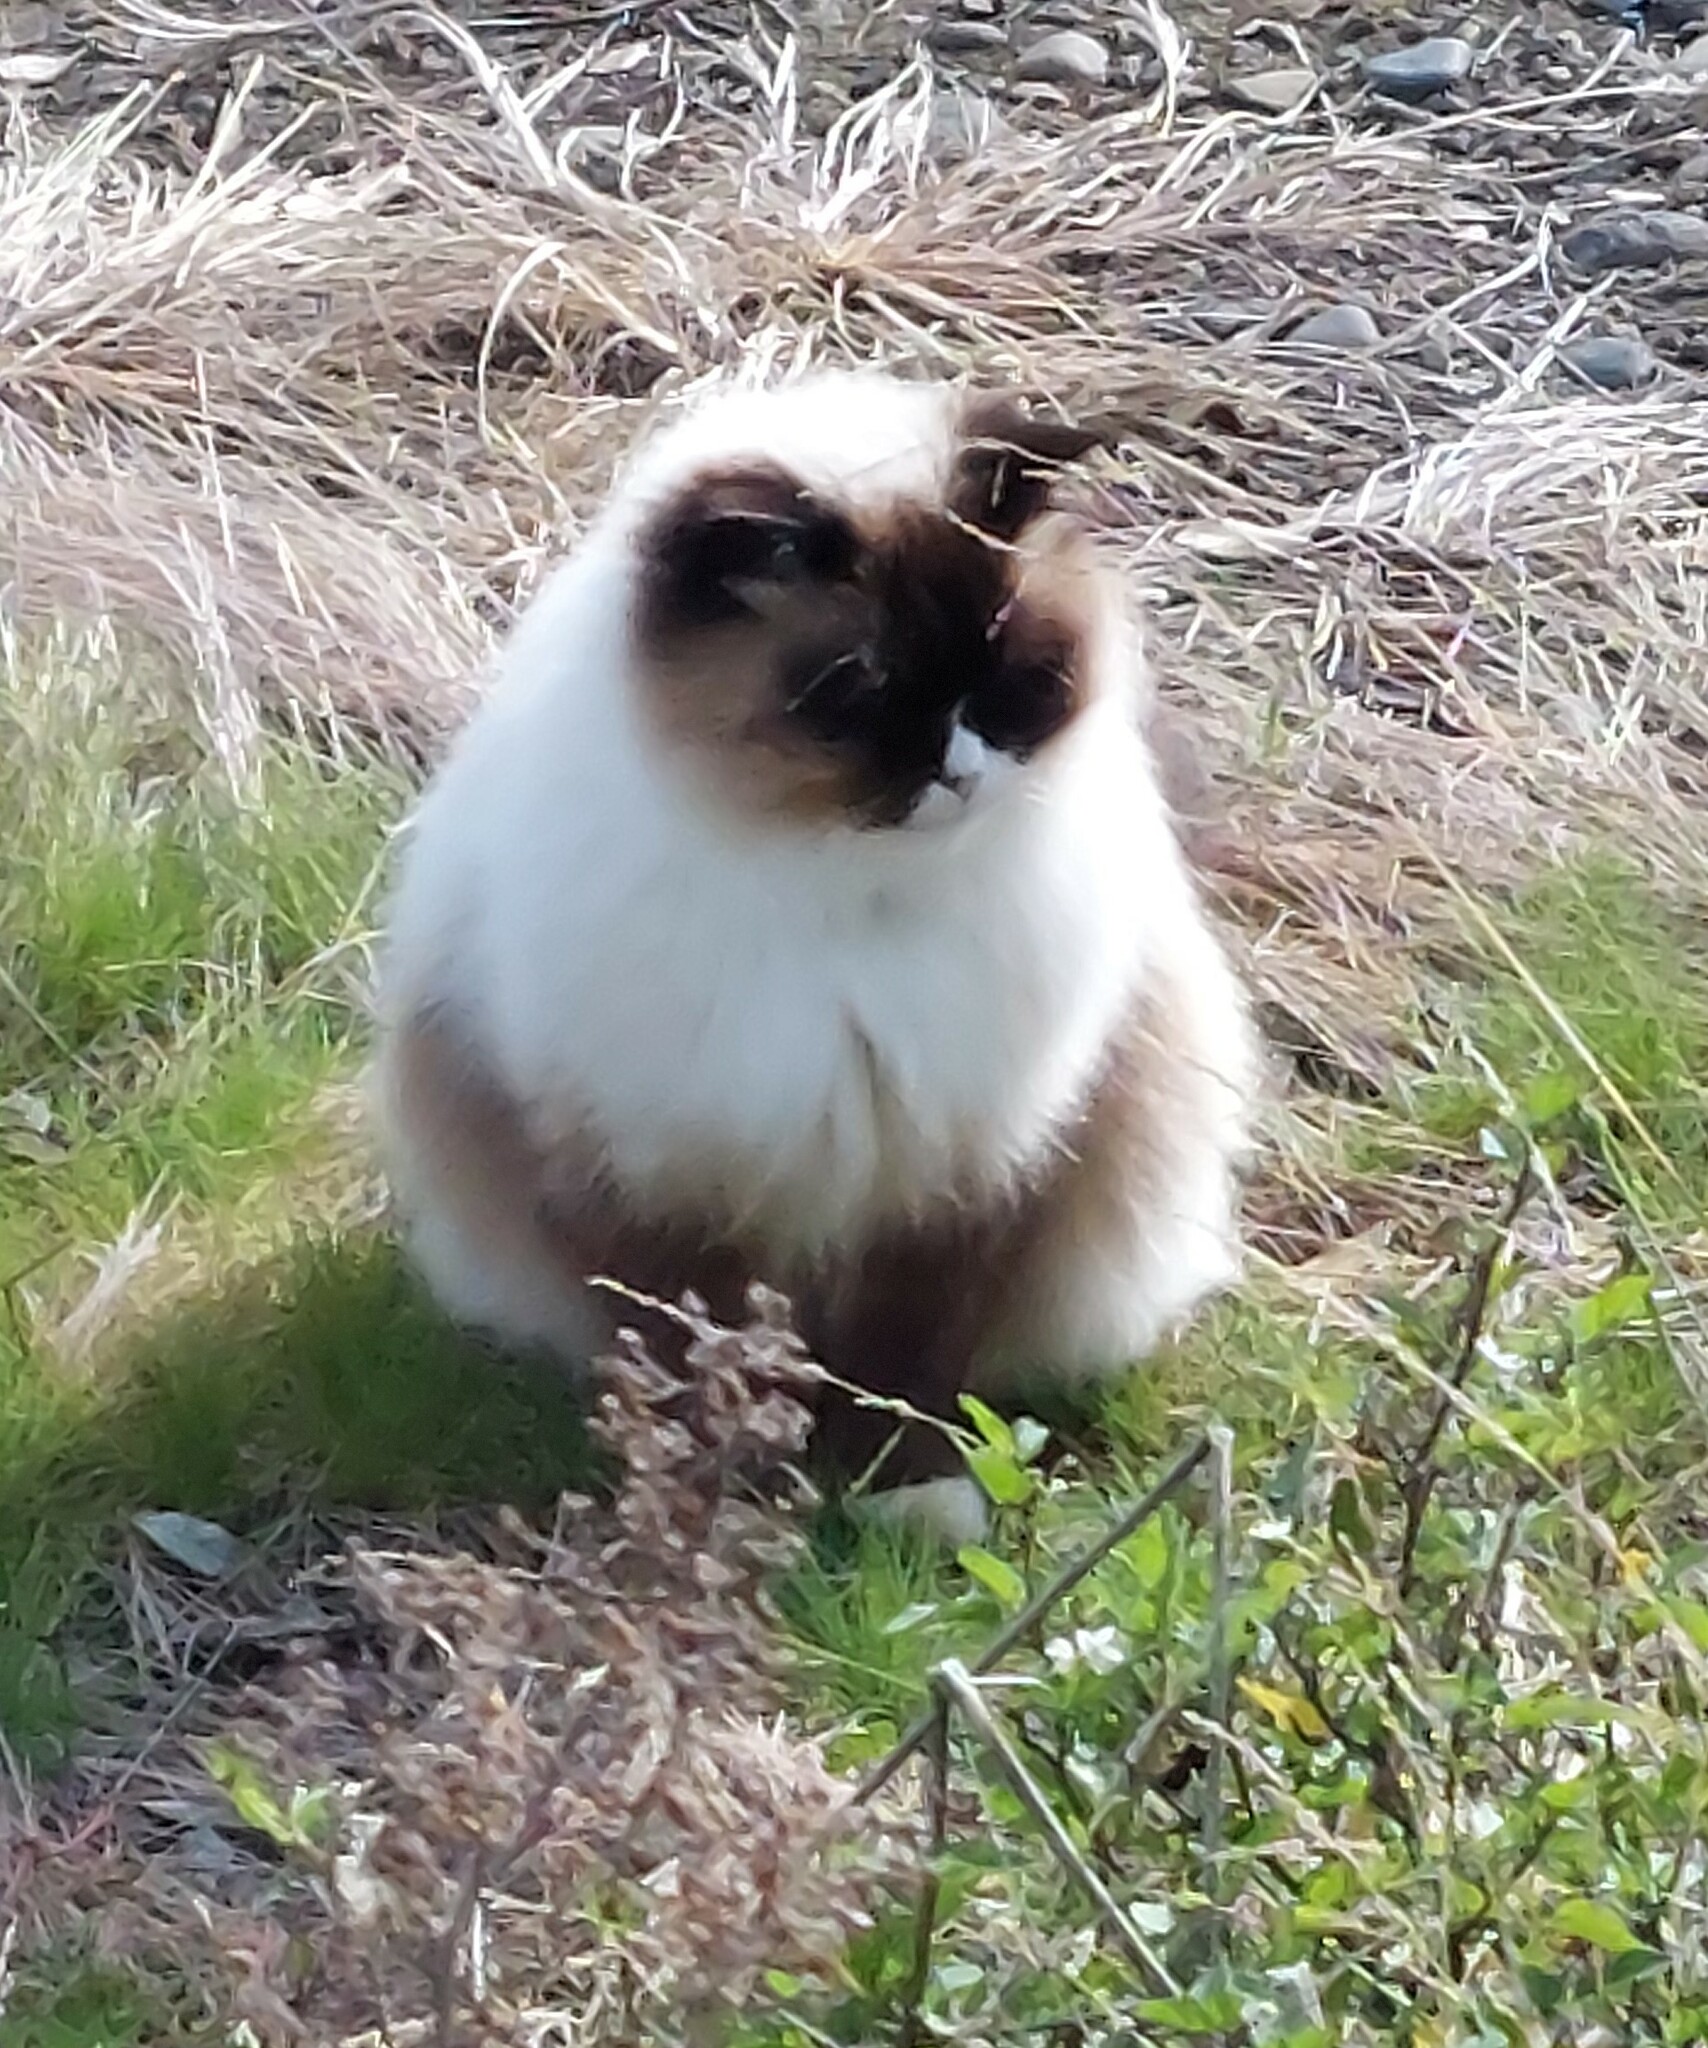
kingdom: Animalia
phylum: Chordata
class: Mammalia
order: Carnivora
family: Felidae
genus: Felis
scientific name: Felis catus
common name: Domestic cat
